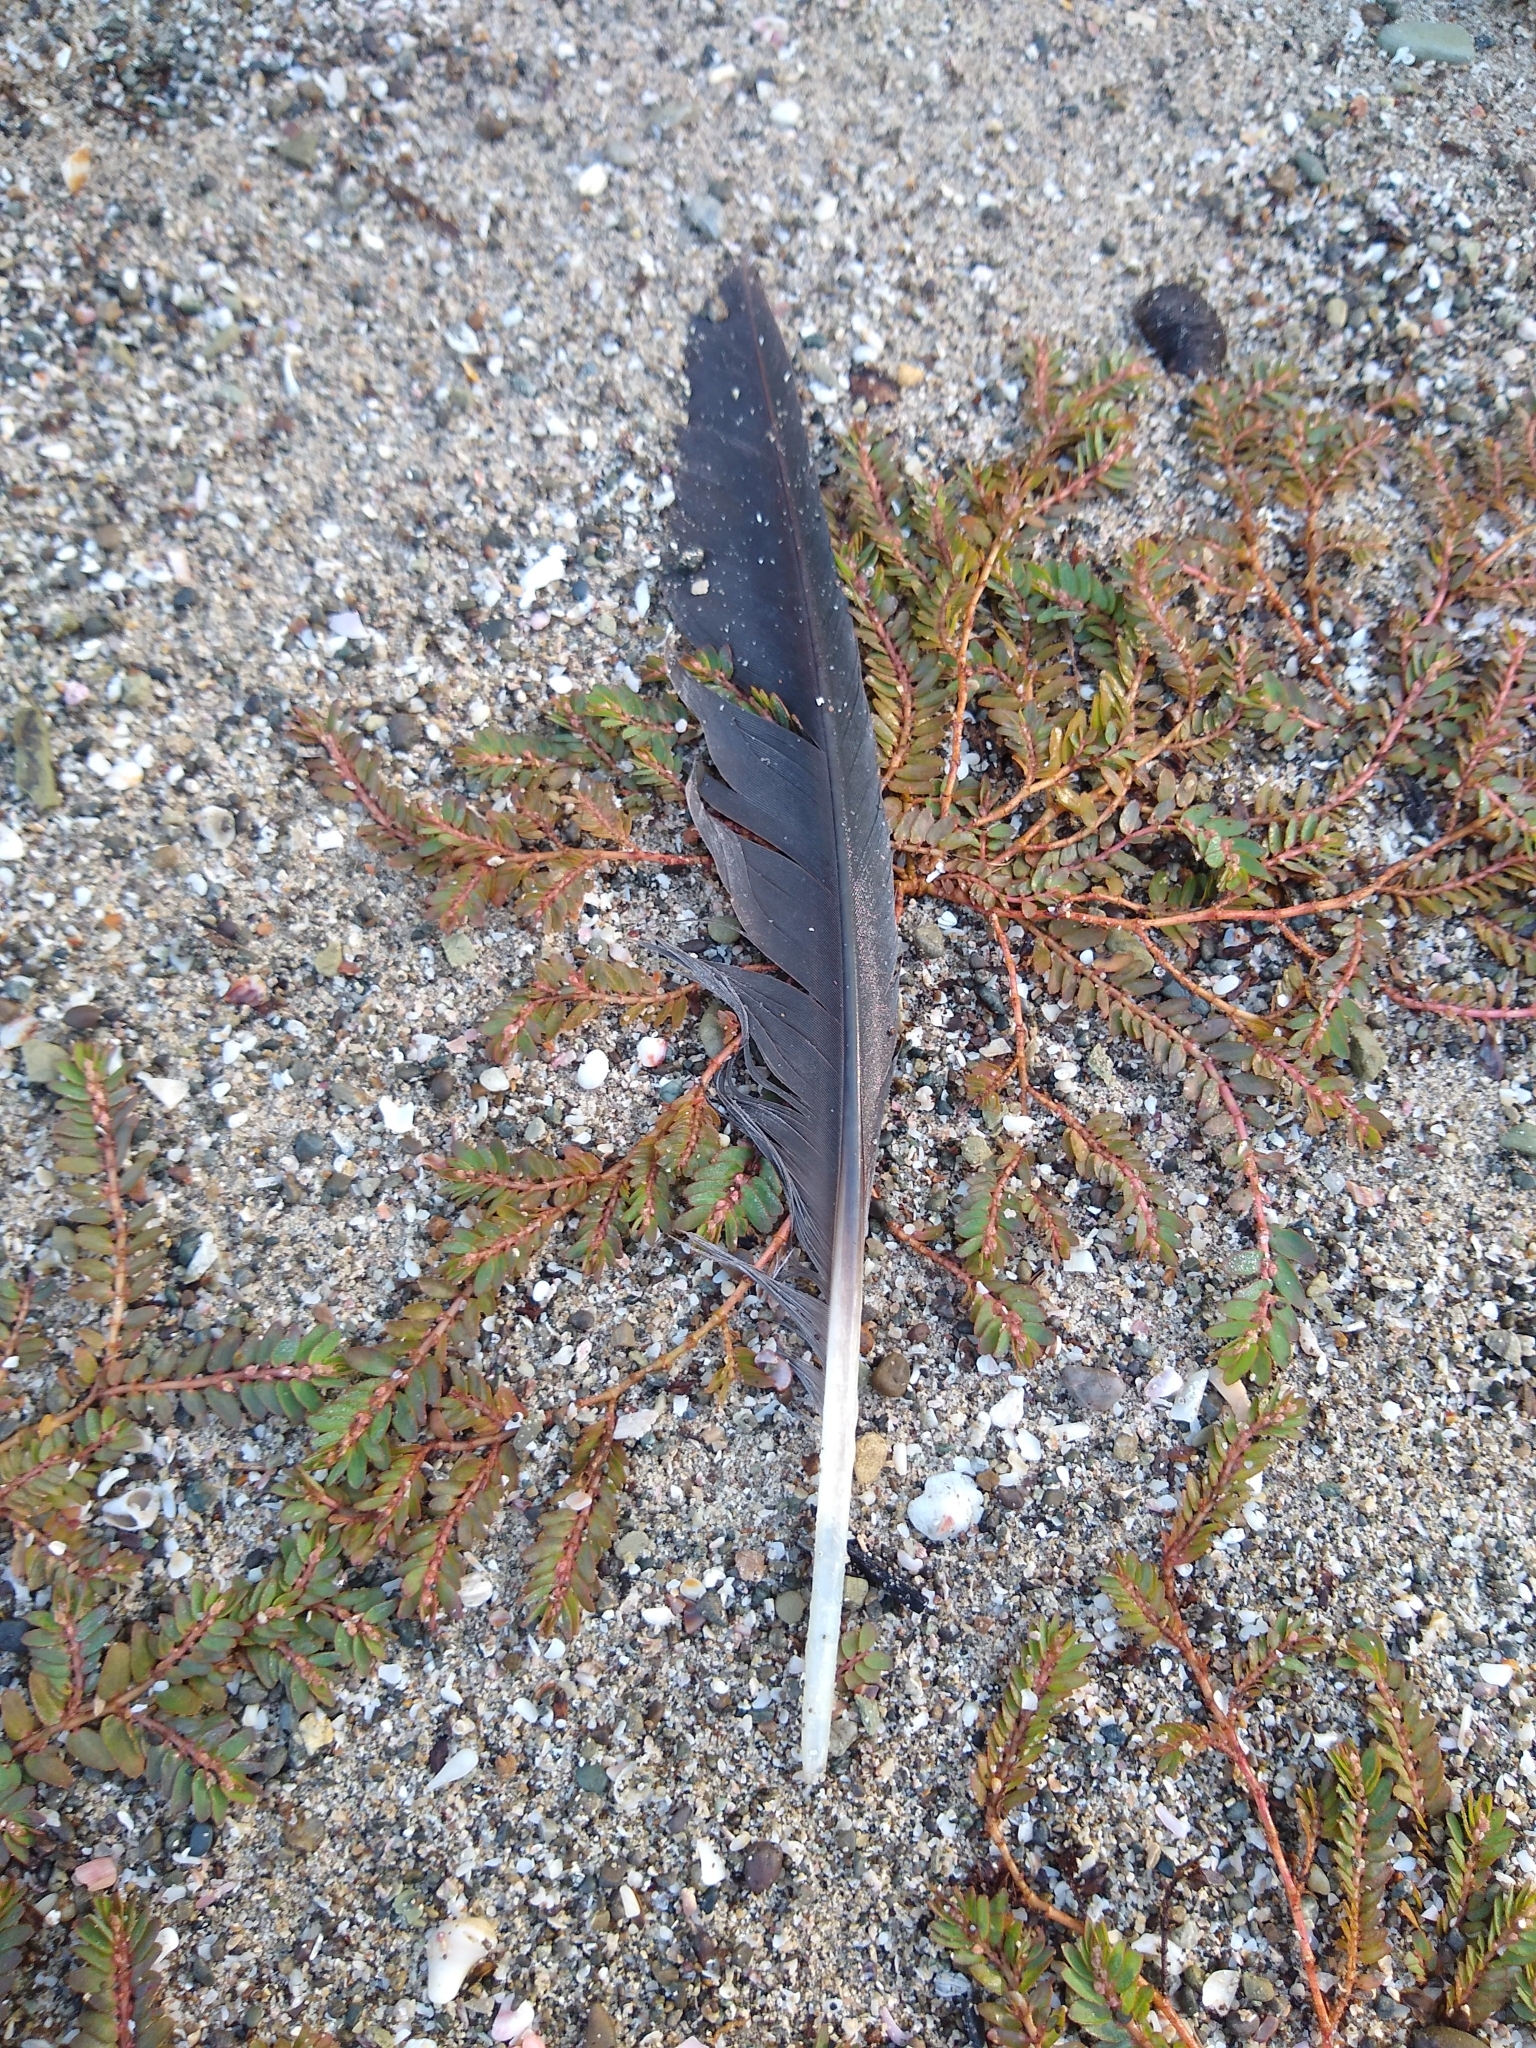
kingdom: Animalia
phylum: Chordata
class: Aves
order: Pelecaniformes
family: Ardeidae
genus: Ardea
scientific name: Ardea herodias
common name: Great blue heron
